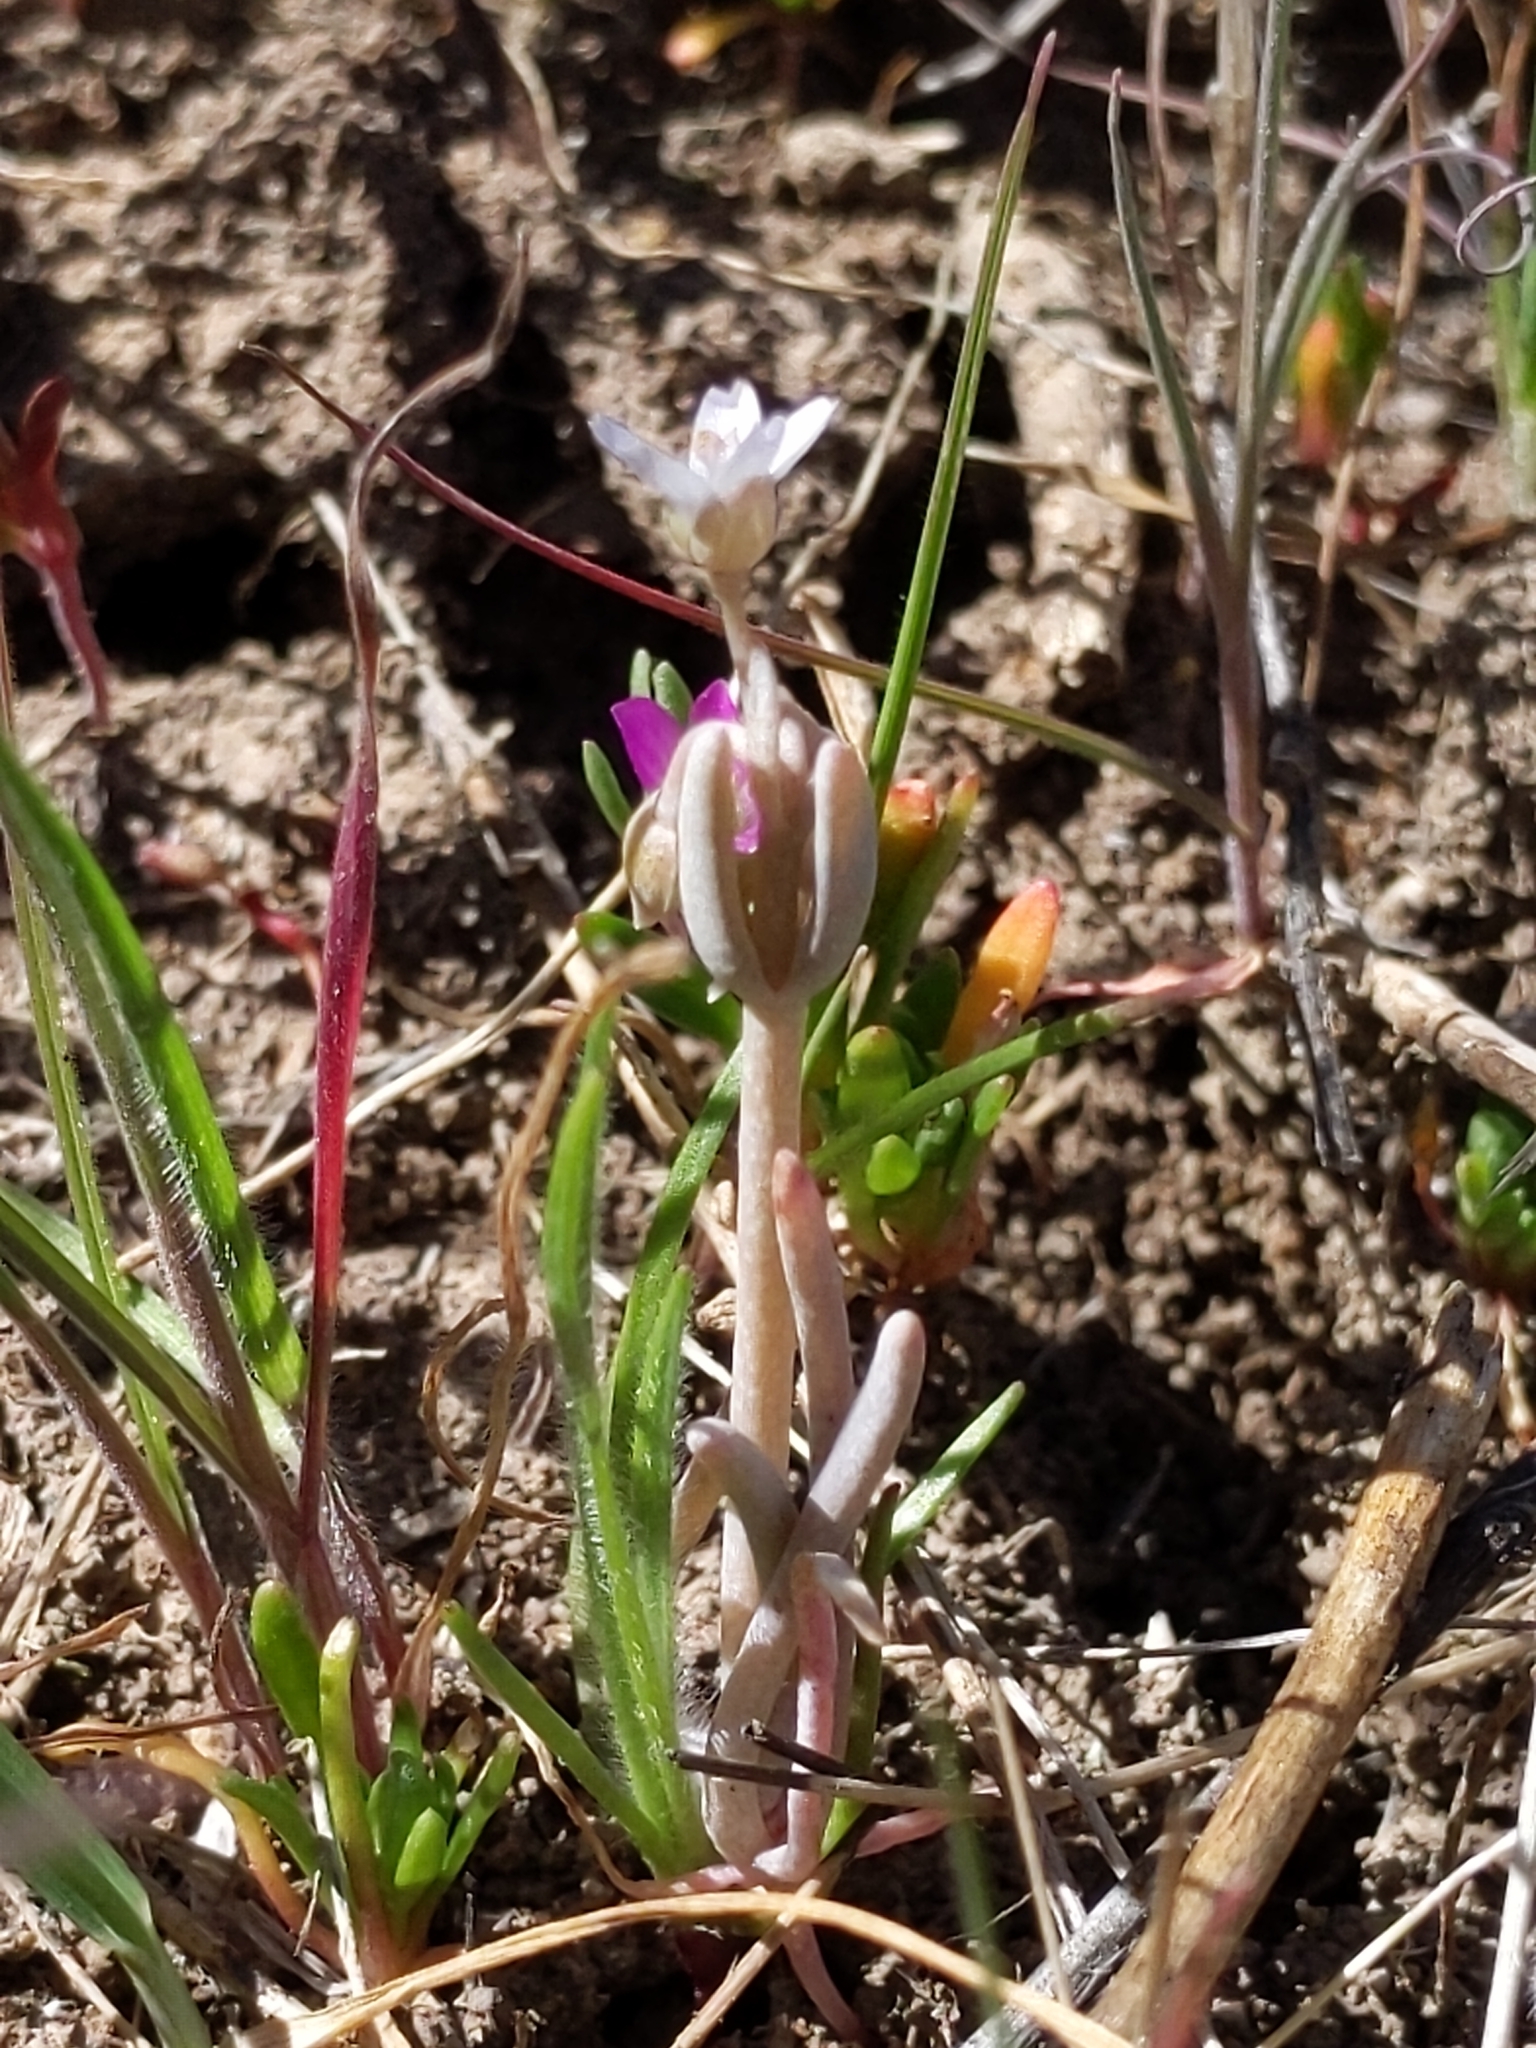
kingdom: Plantae
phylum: Tracheophyta
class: Magnoliopsida
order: Caryophyllales
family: Montiaceae
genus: Claytonia
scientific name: Claytonia exigua
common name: Pale spring beauty
